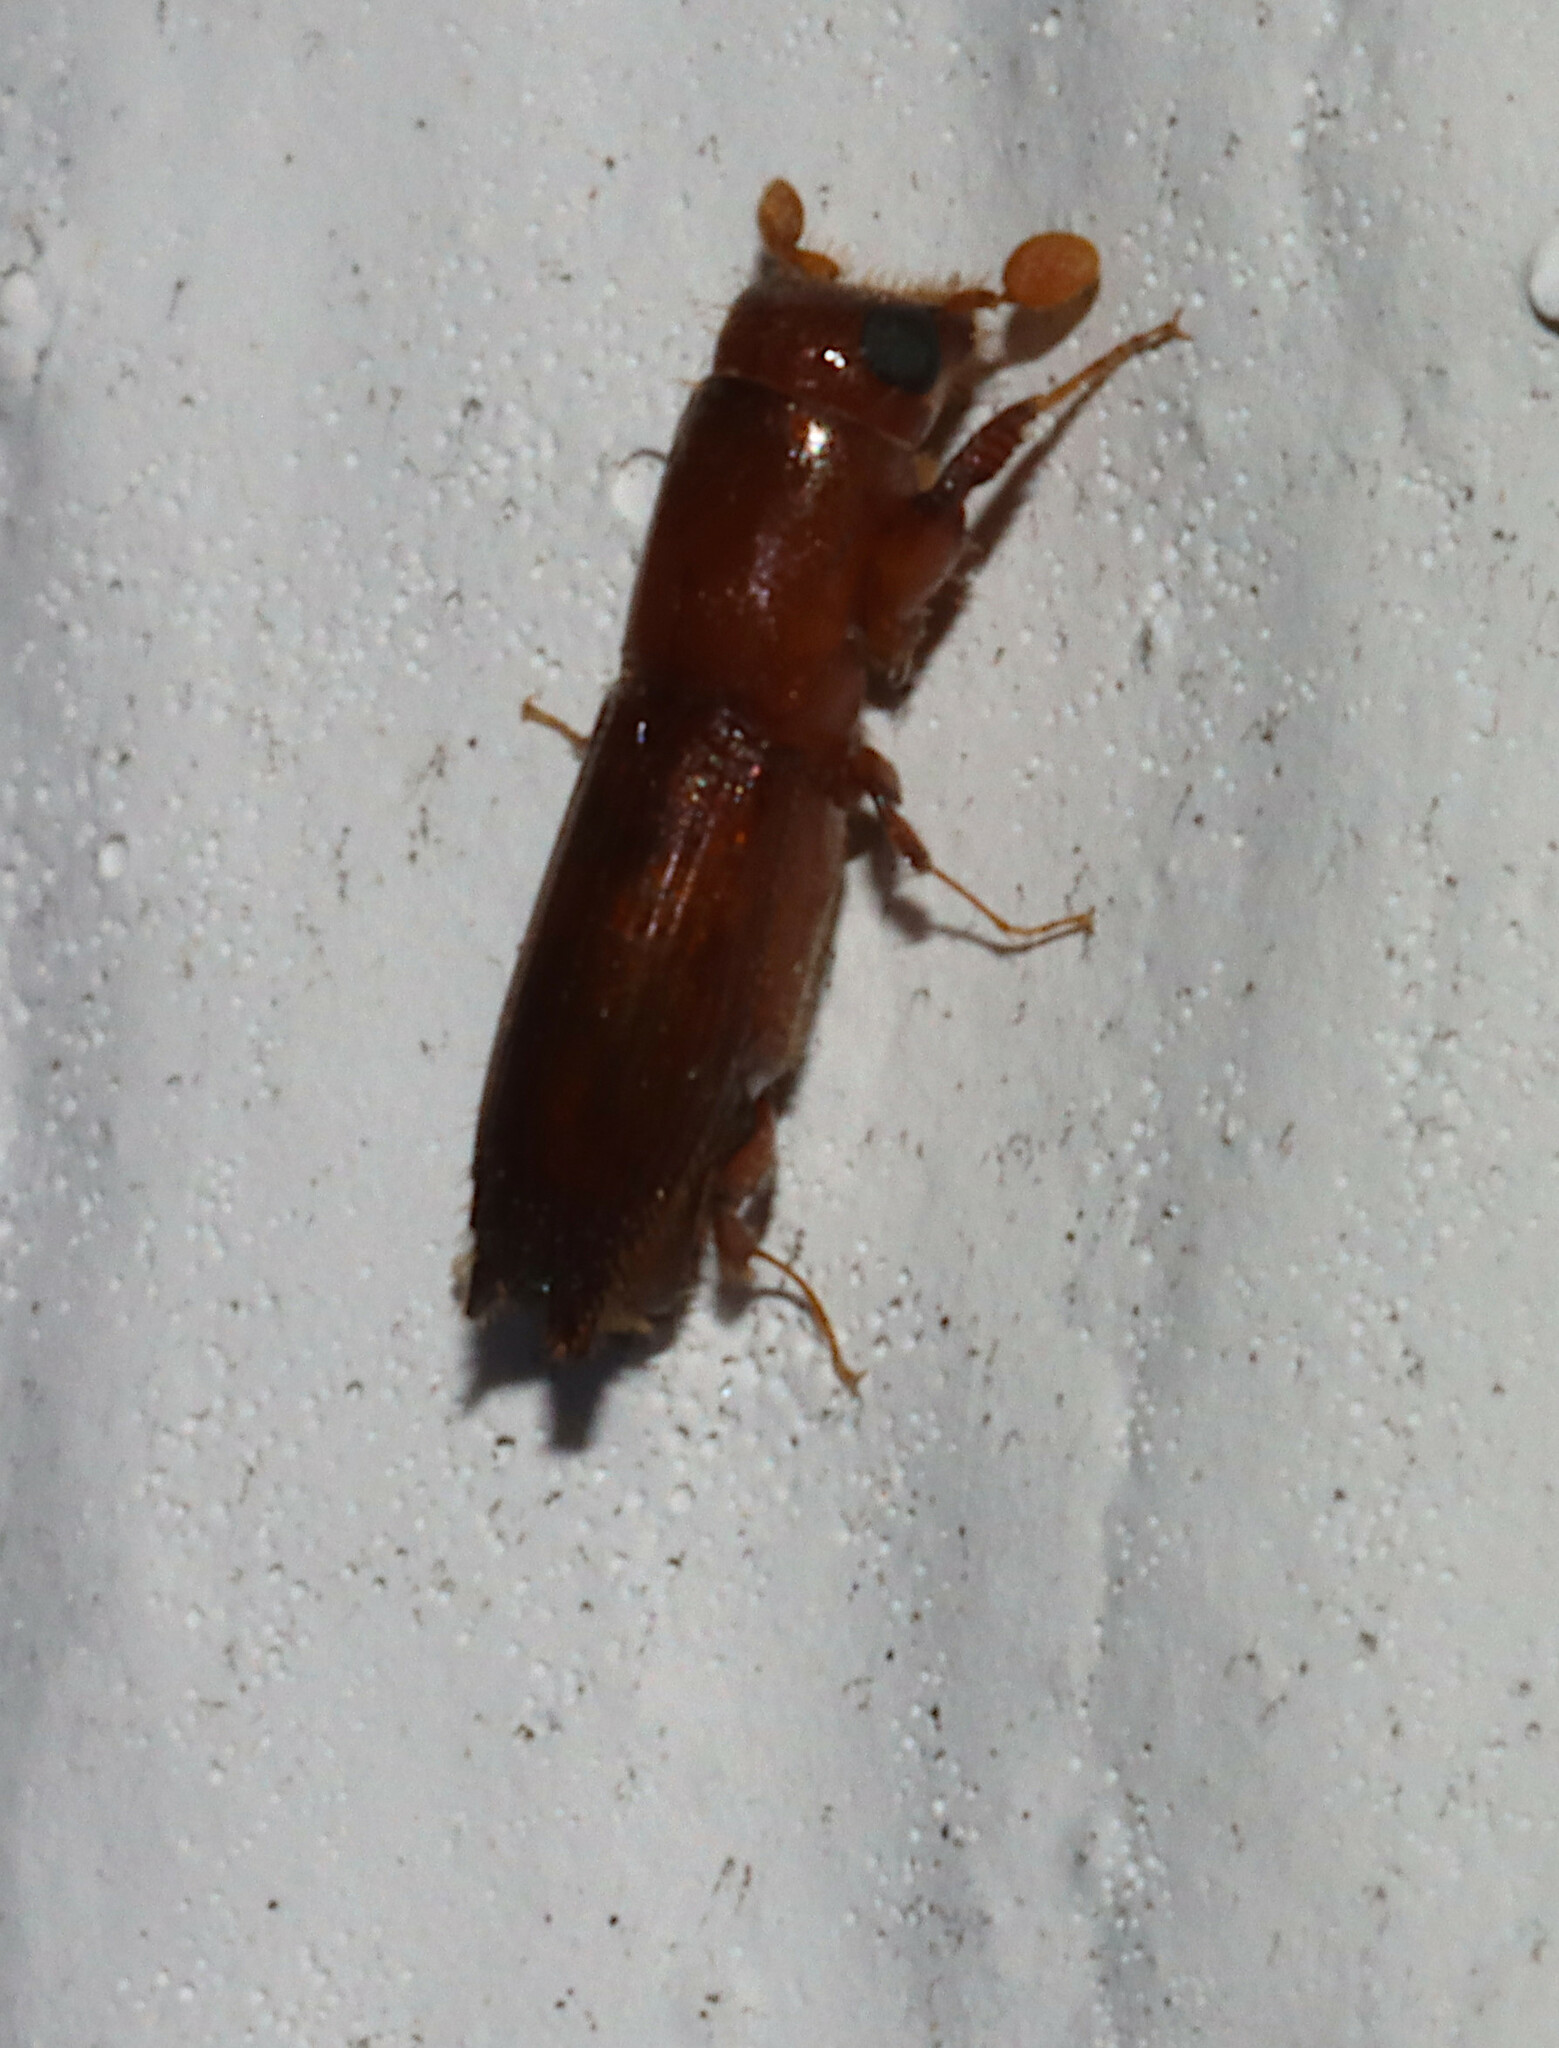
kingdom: Animalia
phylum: Arthropoda
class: Insecta
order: Coleoptera
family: Curculionidae
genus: Euplatypus
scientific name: Euplatypus compositus
